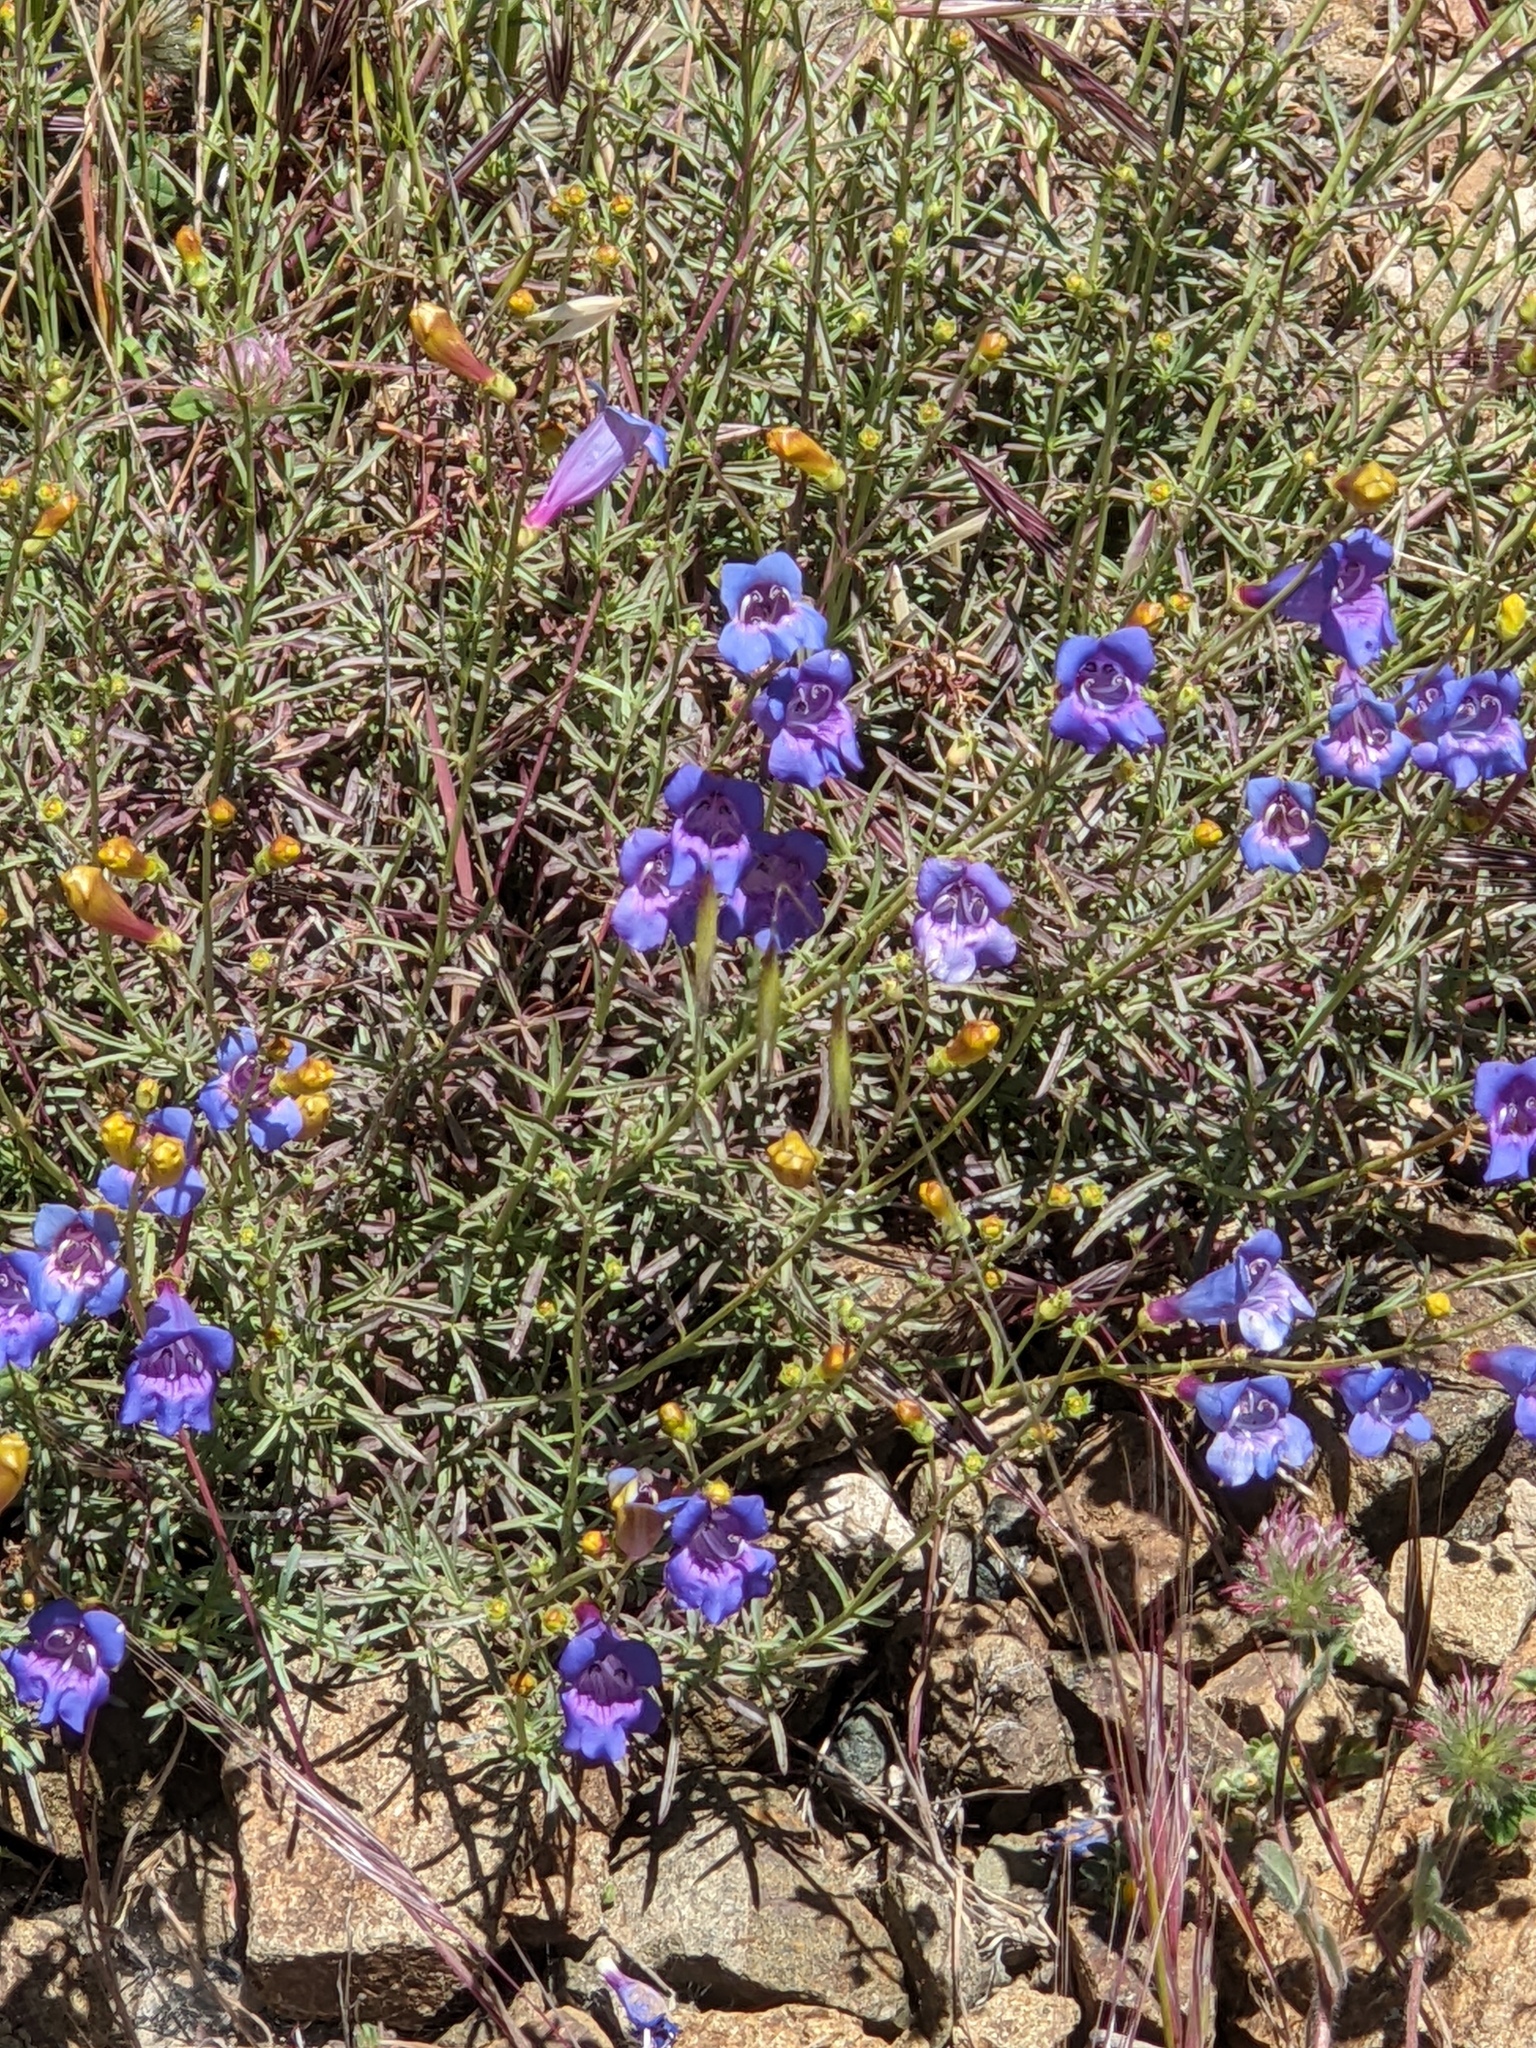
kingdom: Plantae
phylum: Tracheophyta
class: Magnoliopsida
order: Lamiales
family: Plantaginaceae
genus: Penstemon
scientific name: Penstemon heterophyllus
